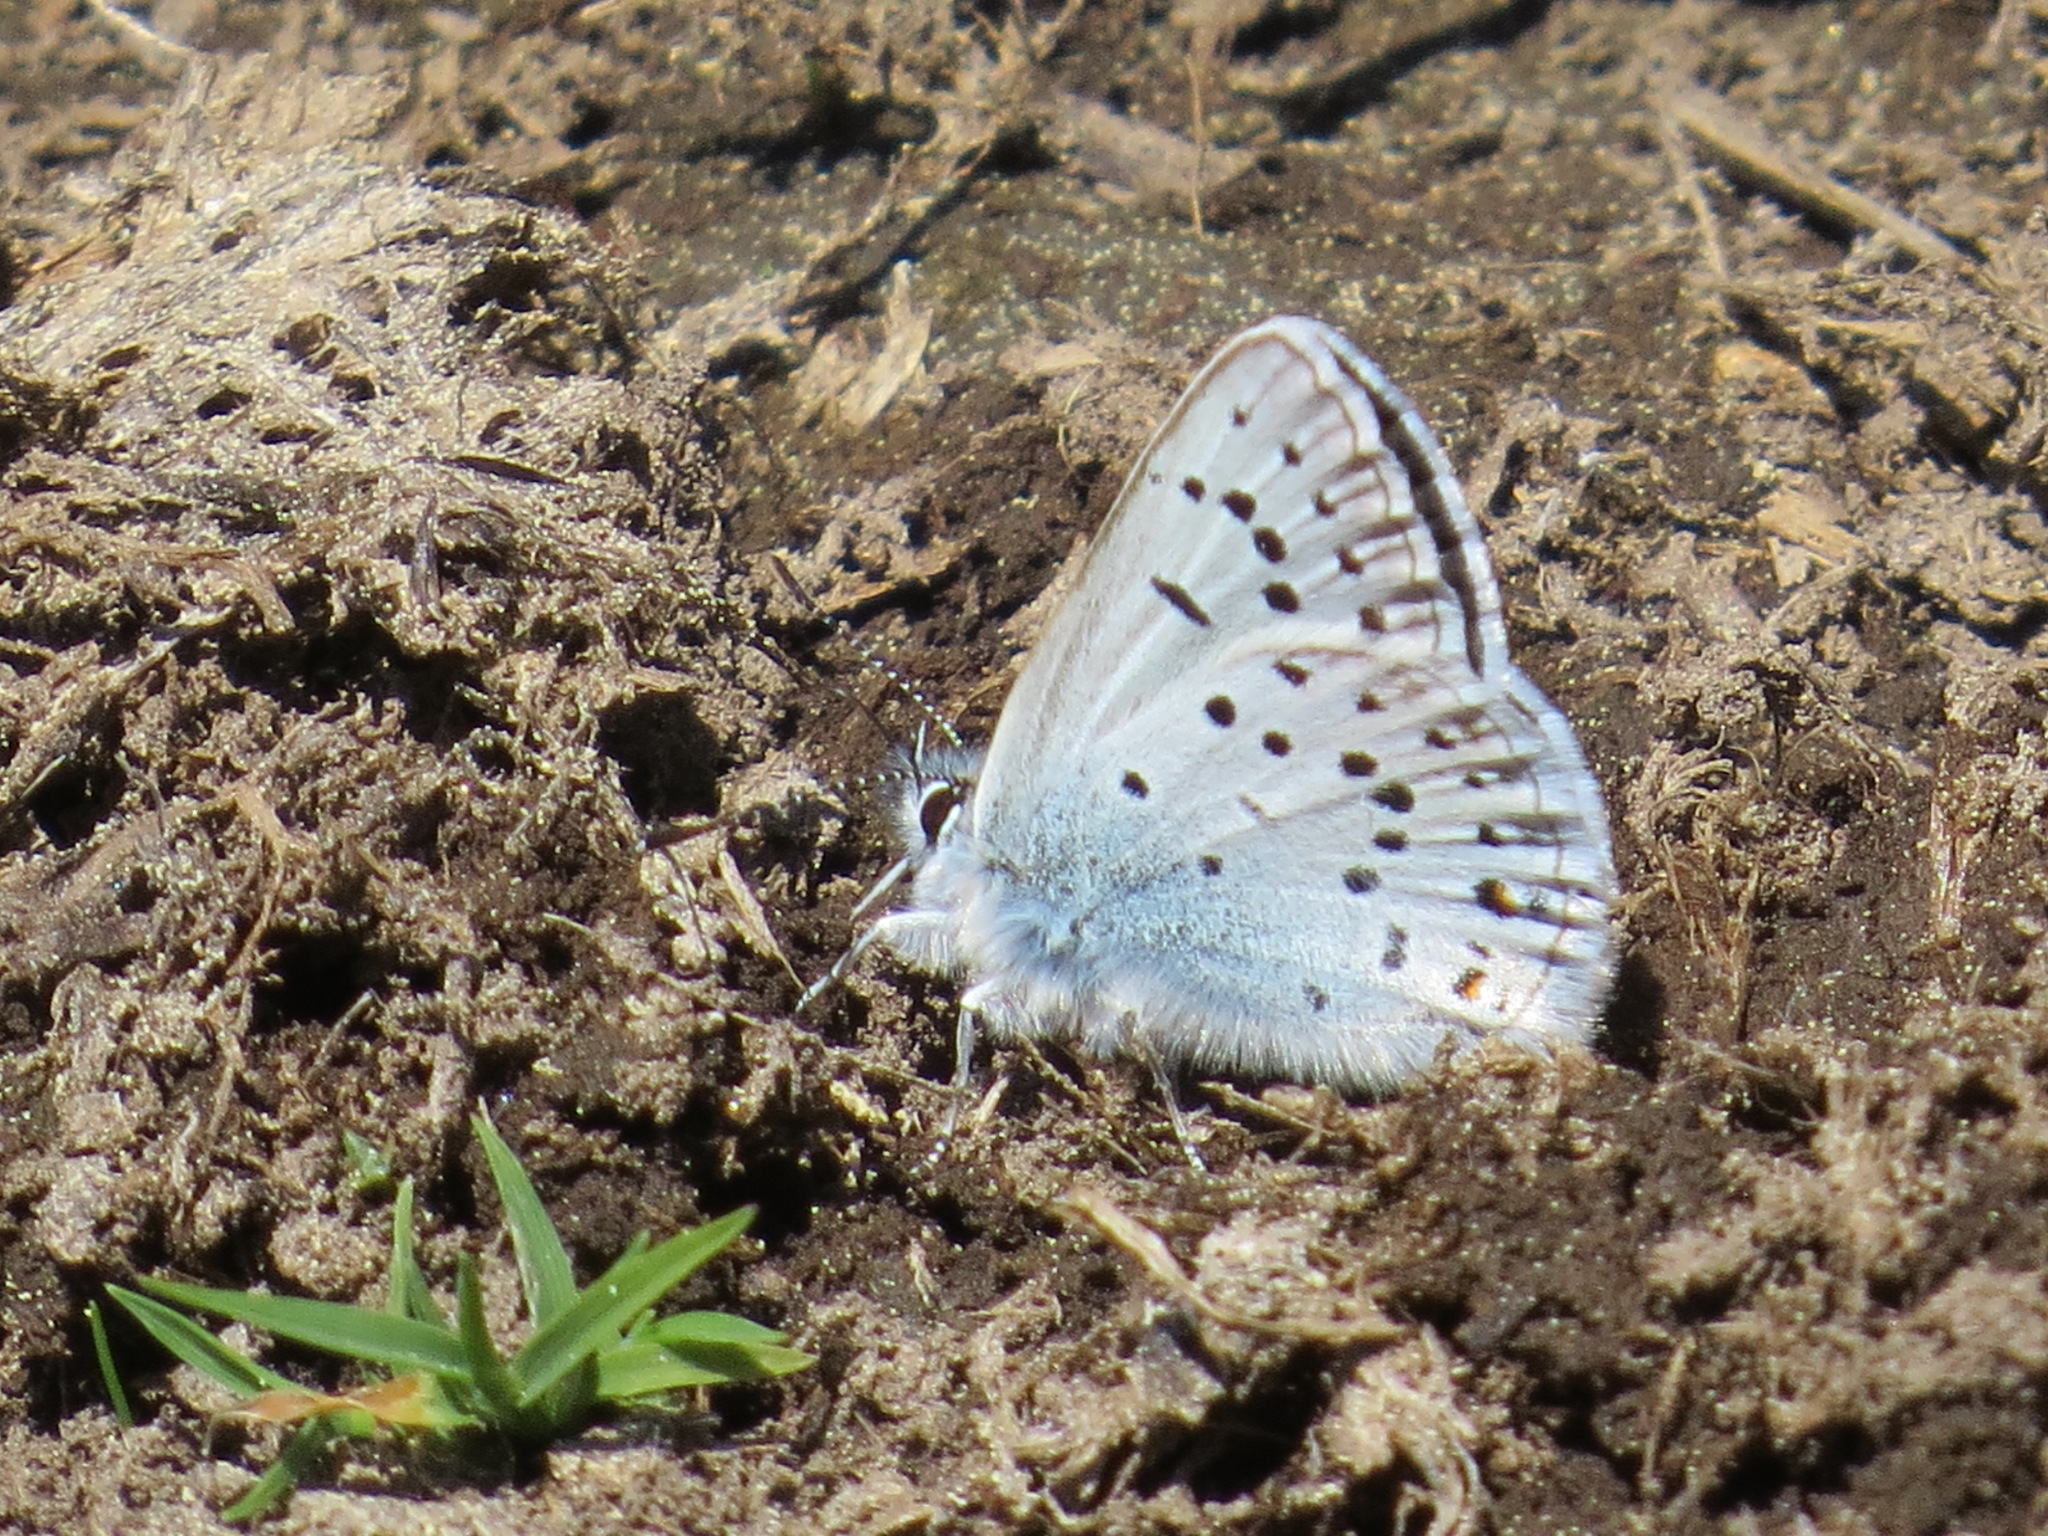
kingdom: Animalia
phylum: Arthropoda
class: Insecta
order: Lepidoptera
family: Lycaenidae
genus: Icaricia
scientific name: Icaricia saepiolus
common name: Greenish blue
